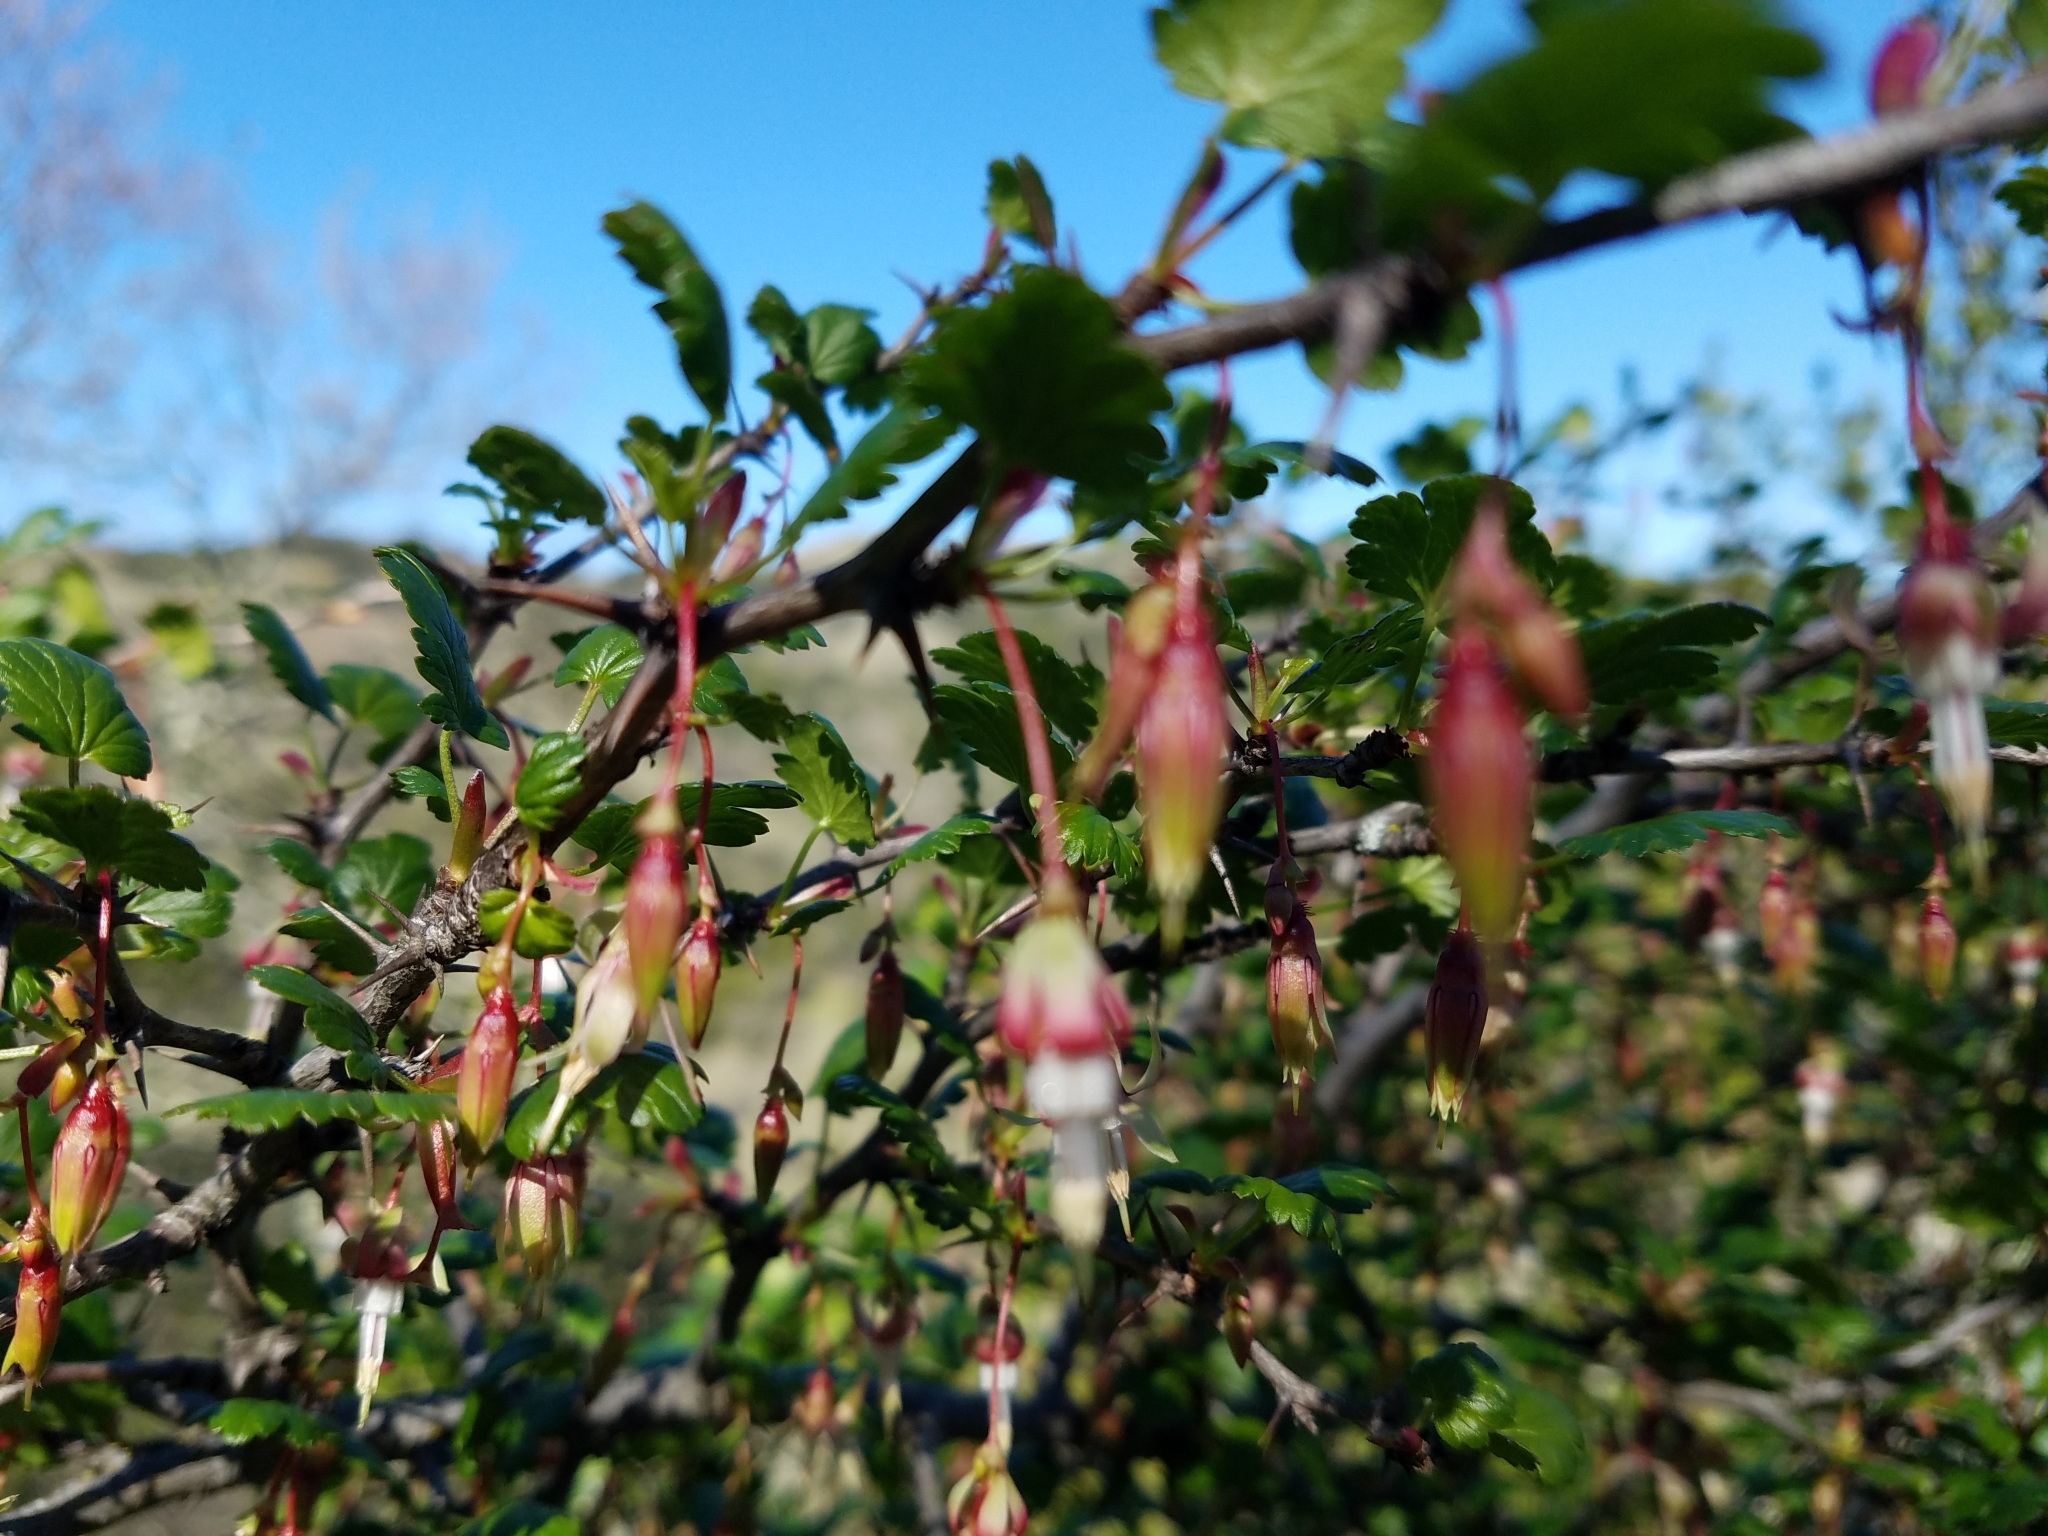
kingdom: Plantae
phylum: Tracheophyta
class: Magnoliopsida
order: Saxifragales
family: Grossulariaceae
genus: Ribes
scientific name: Ribes californicum
